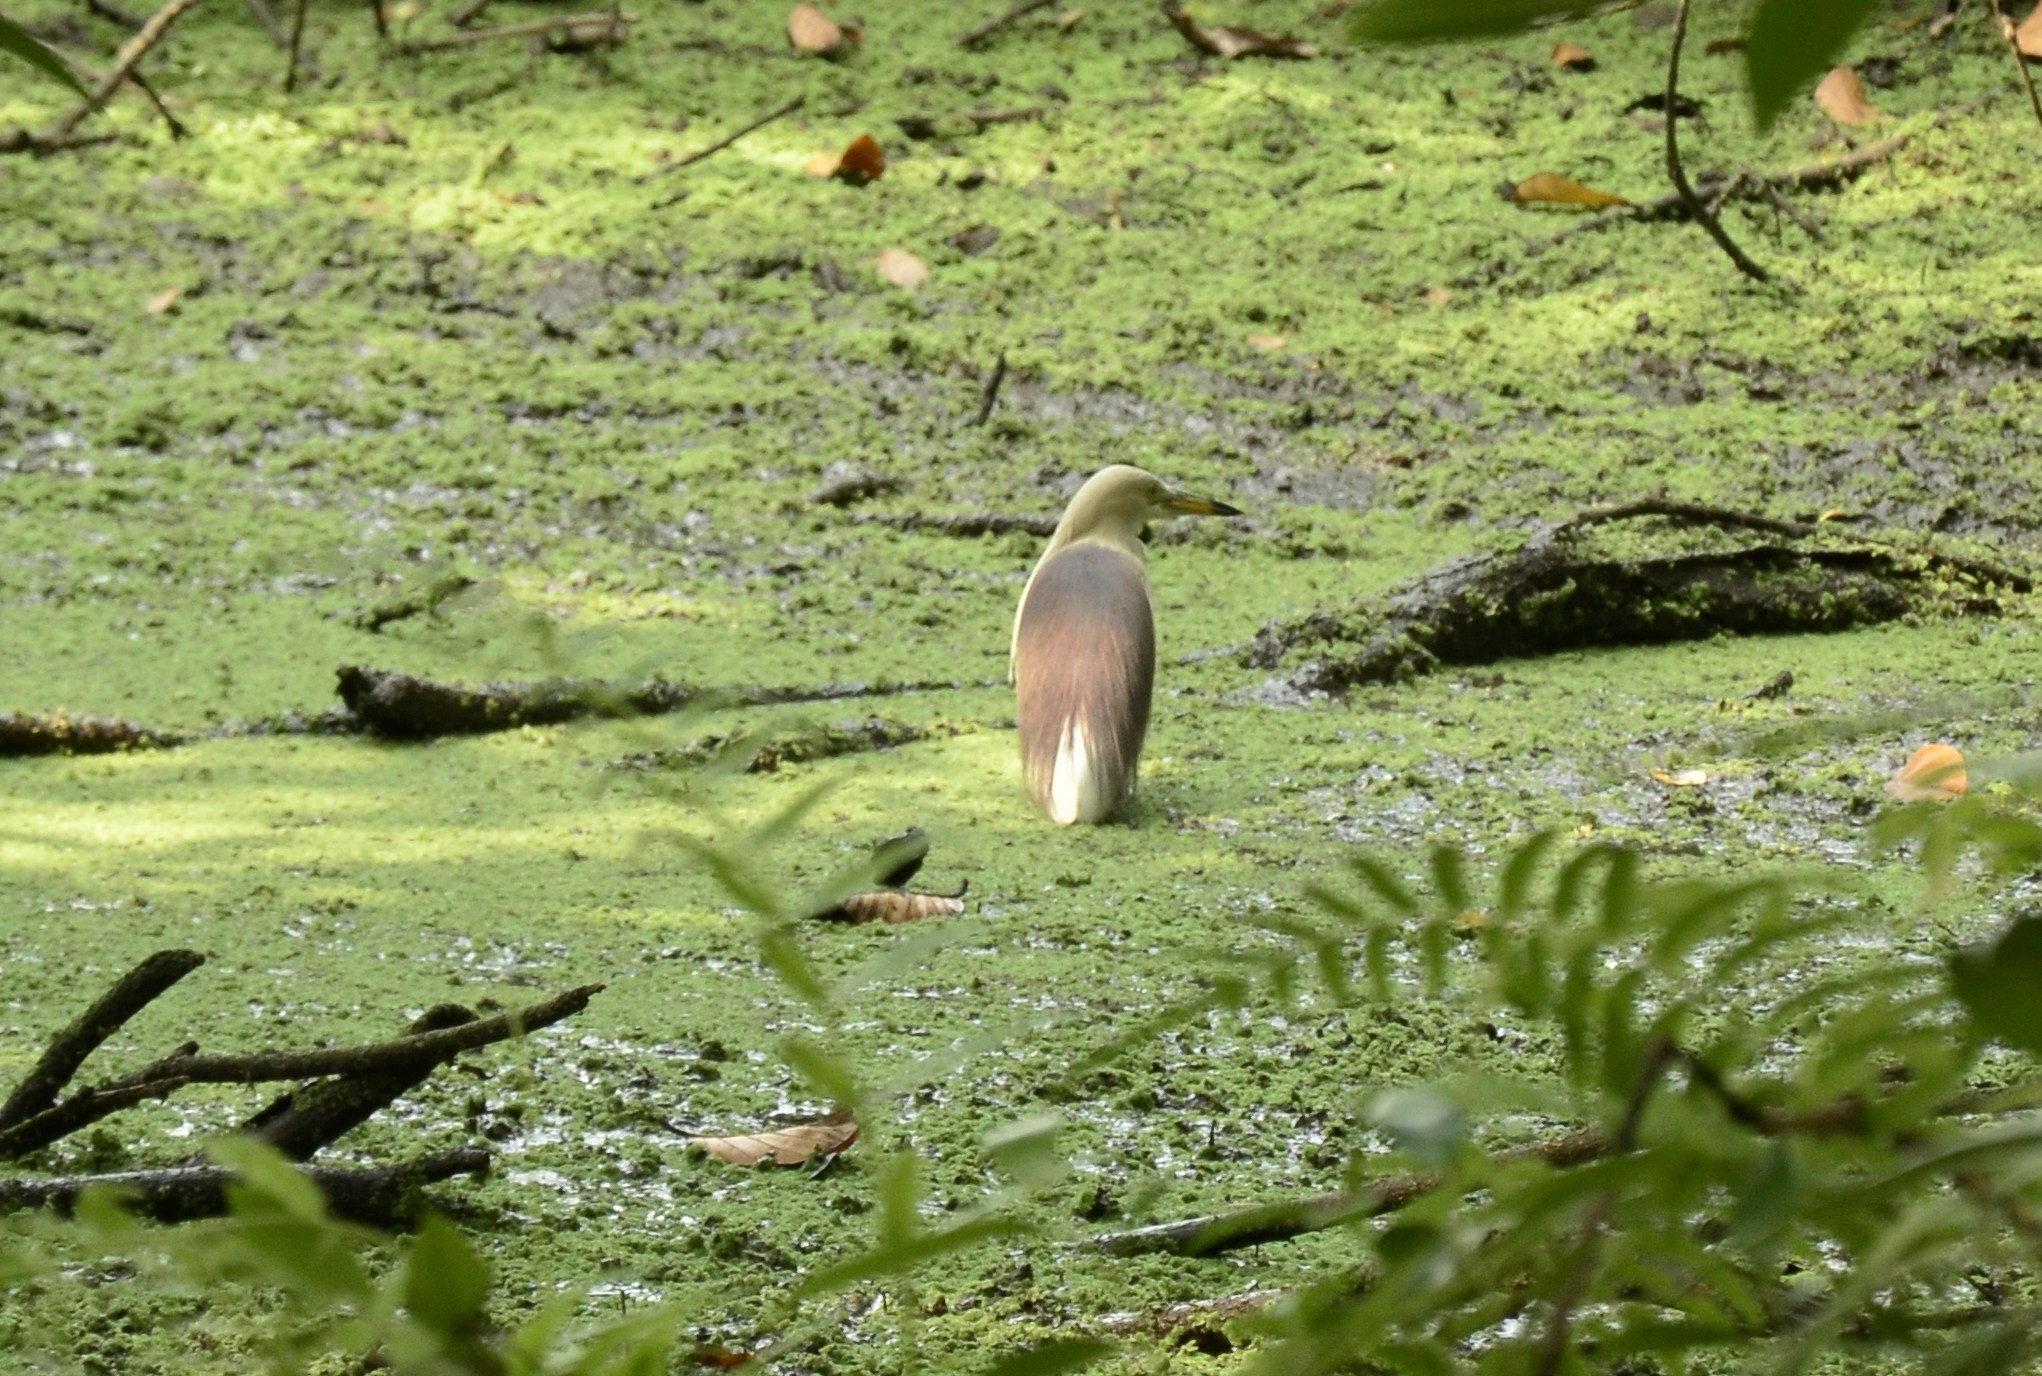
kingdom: Animalia
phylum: Chordata
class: Aves
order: Pelecaniformes
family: Ardeidae
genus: Ardeola
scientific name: Ardeola grayii
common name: Indian pond heron
